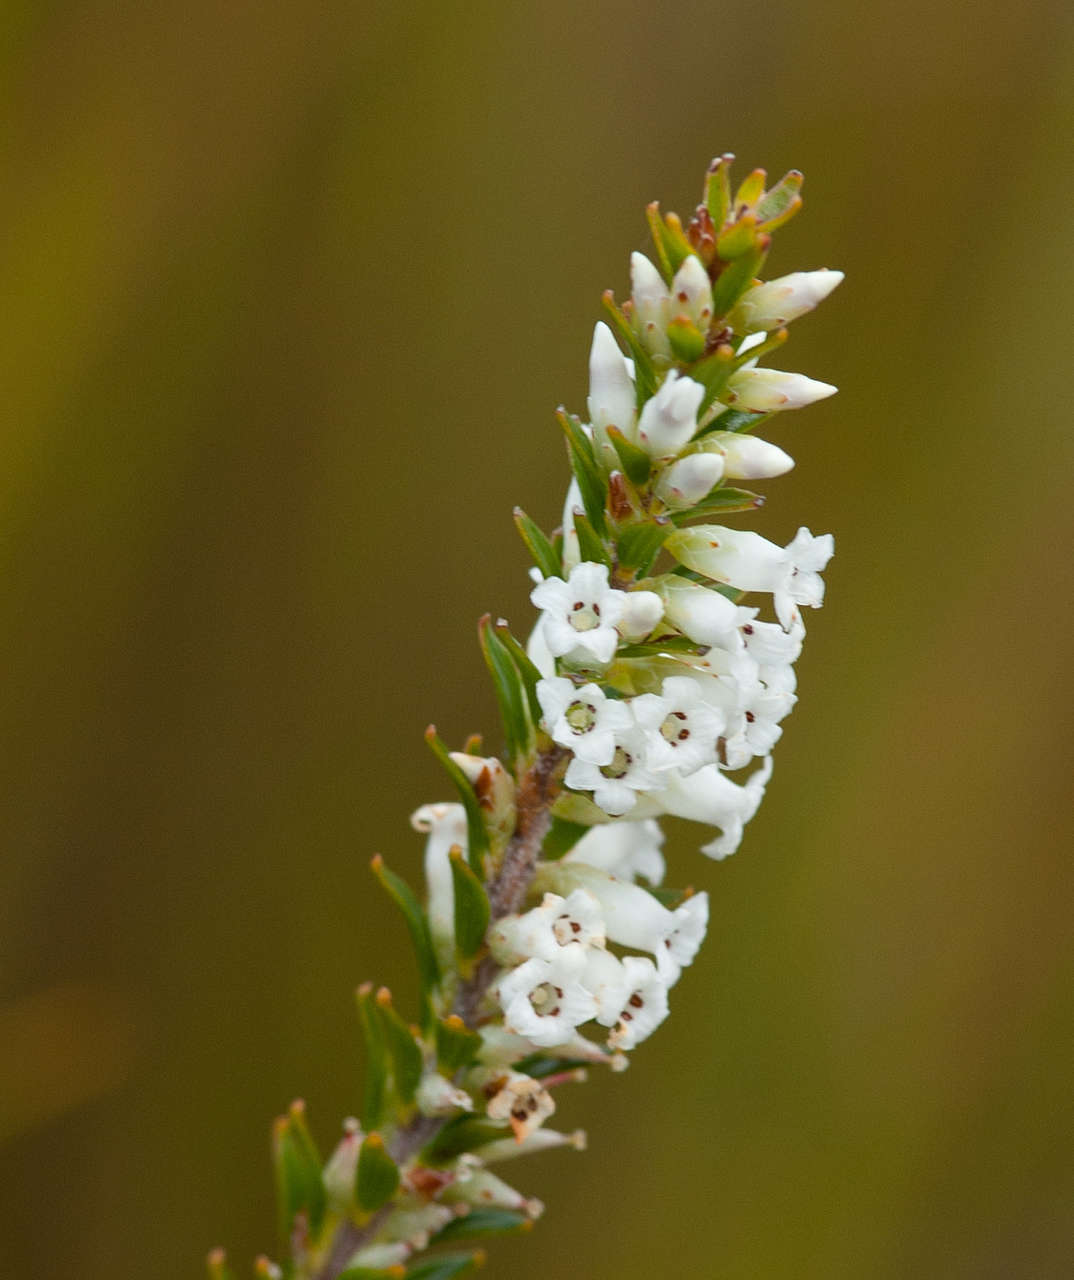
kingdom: Plantae
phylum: Tracheophyta
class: Magnoliopsida
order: Ericales
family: Ericaceae
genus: Epacris
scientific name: Epacris obtusifolia
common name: Blunt-leaf australian-heath
